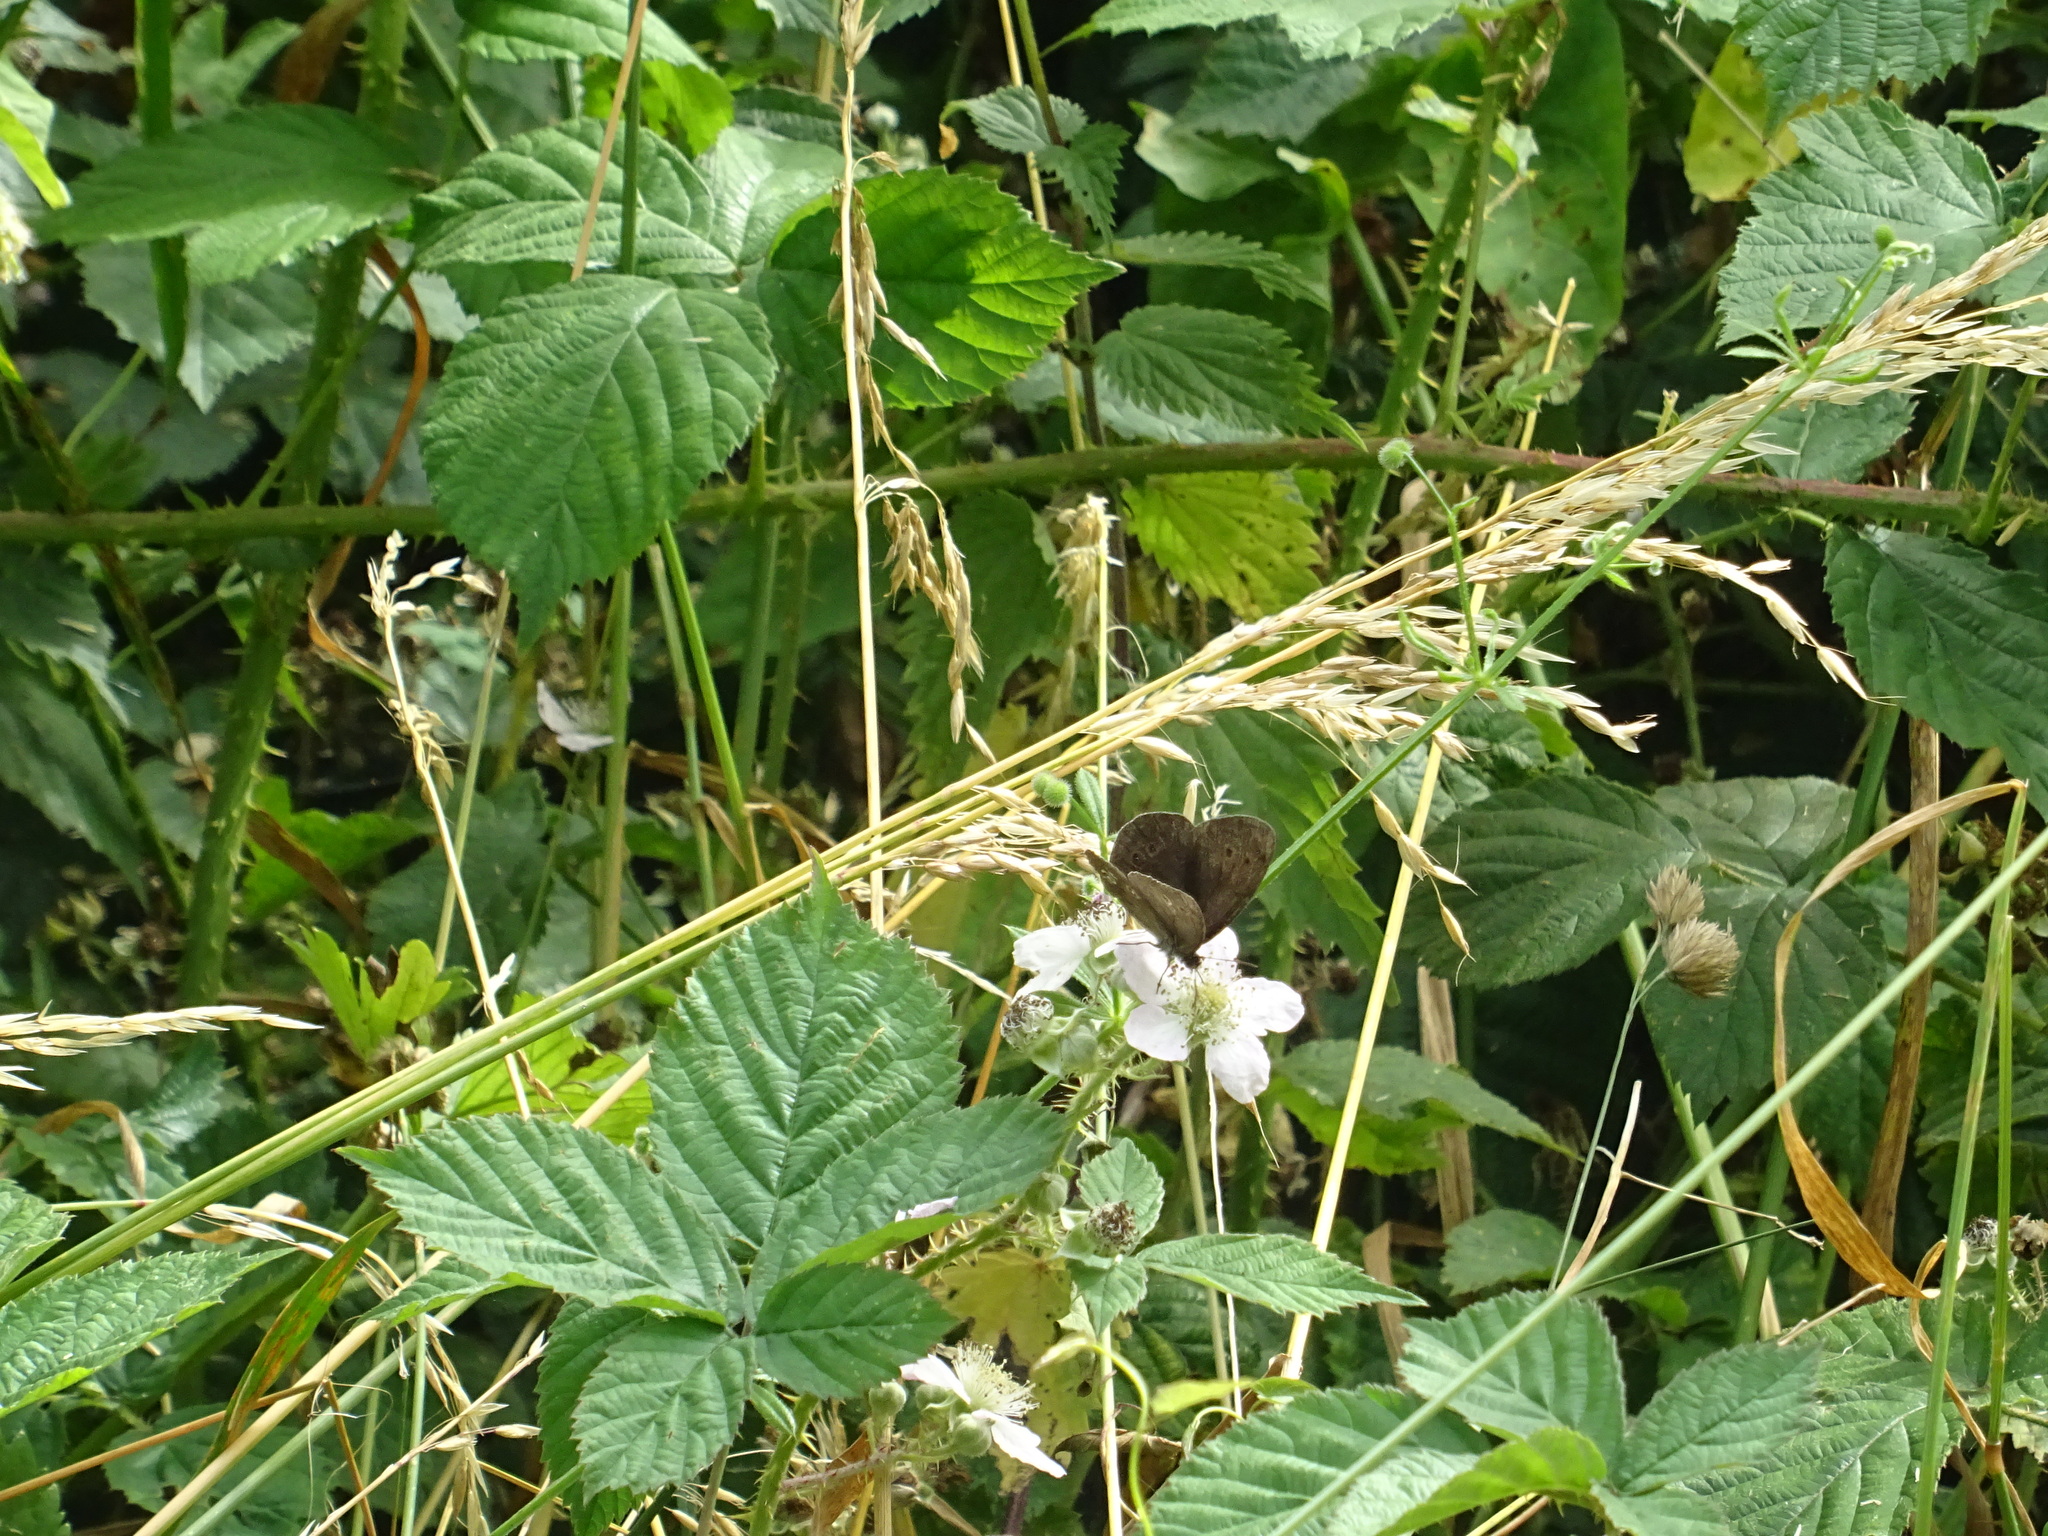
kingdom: Animalia
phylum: Arthropoda
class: Insecta
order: Lepidoptera
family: Nymphalidae
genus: Aphantopus
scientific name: Aphantopus hyperantus
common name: Ringlet
